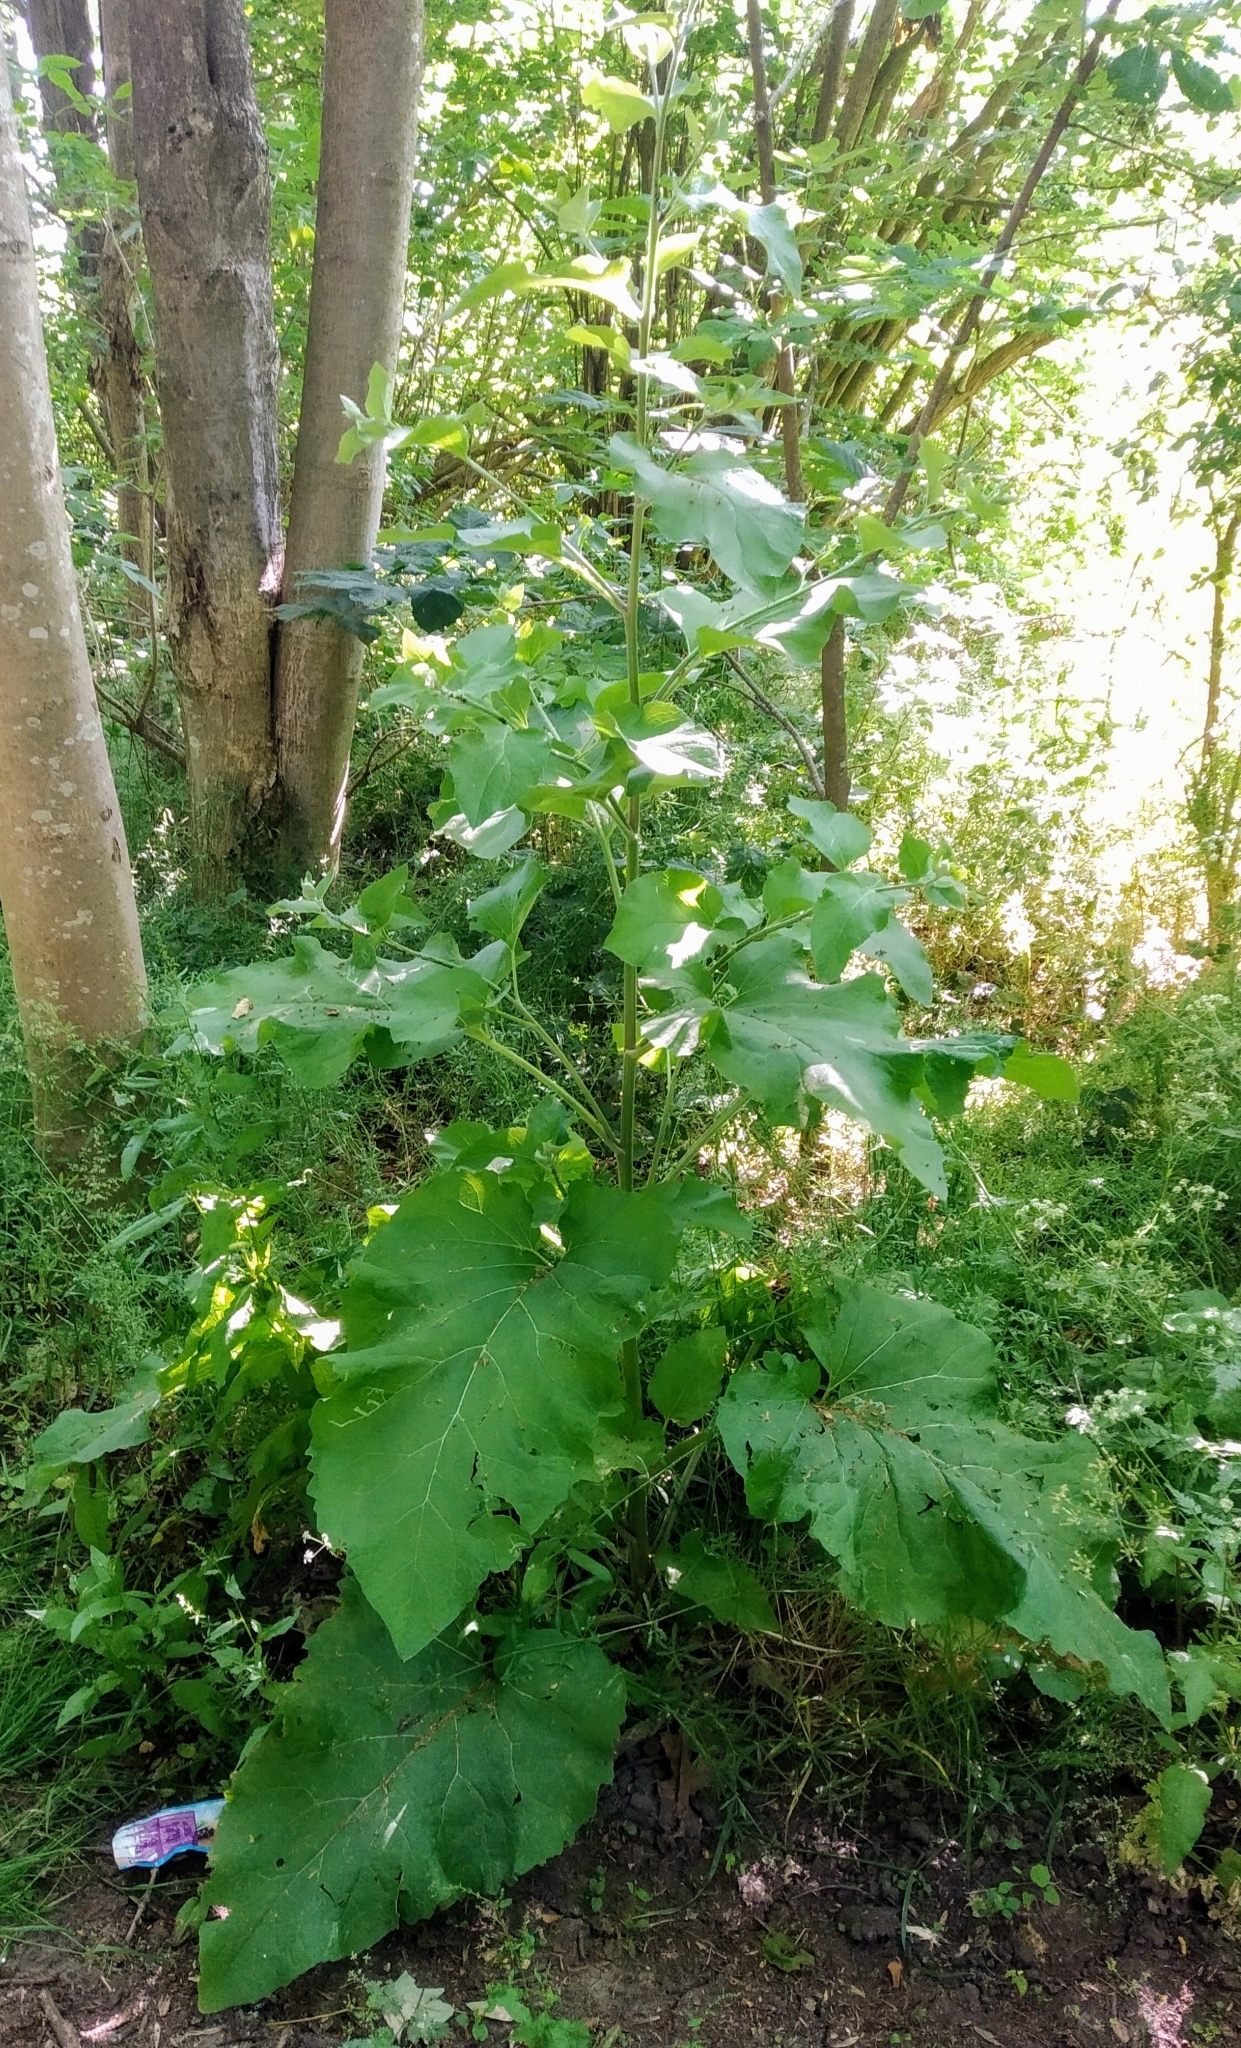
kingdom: Plantae
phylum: Tracheophyta
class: Magnoliopsida
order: Asterales
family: Asteraceae
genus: Arctium
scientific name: Arctium lappa
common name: Greater burdock
